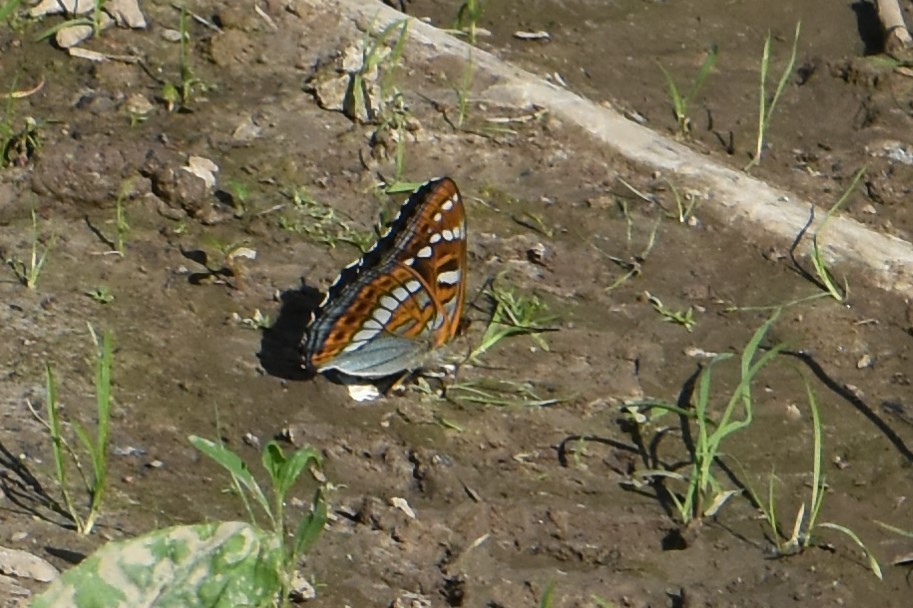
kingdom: Animalia
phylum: Arthropoda
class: Insecta
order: Lepidoptera
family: Nymphalidae
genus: Limenitis
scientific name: Limenitis populi
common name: Poplar admiral
